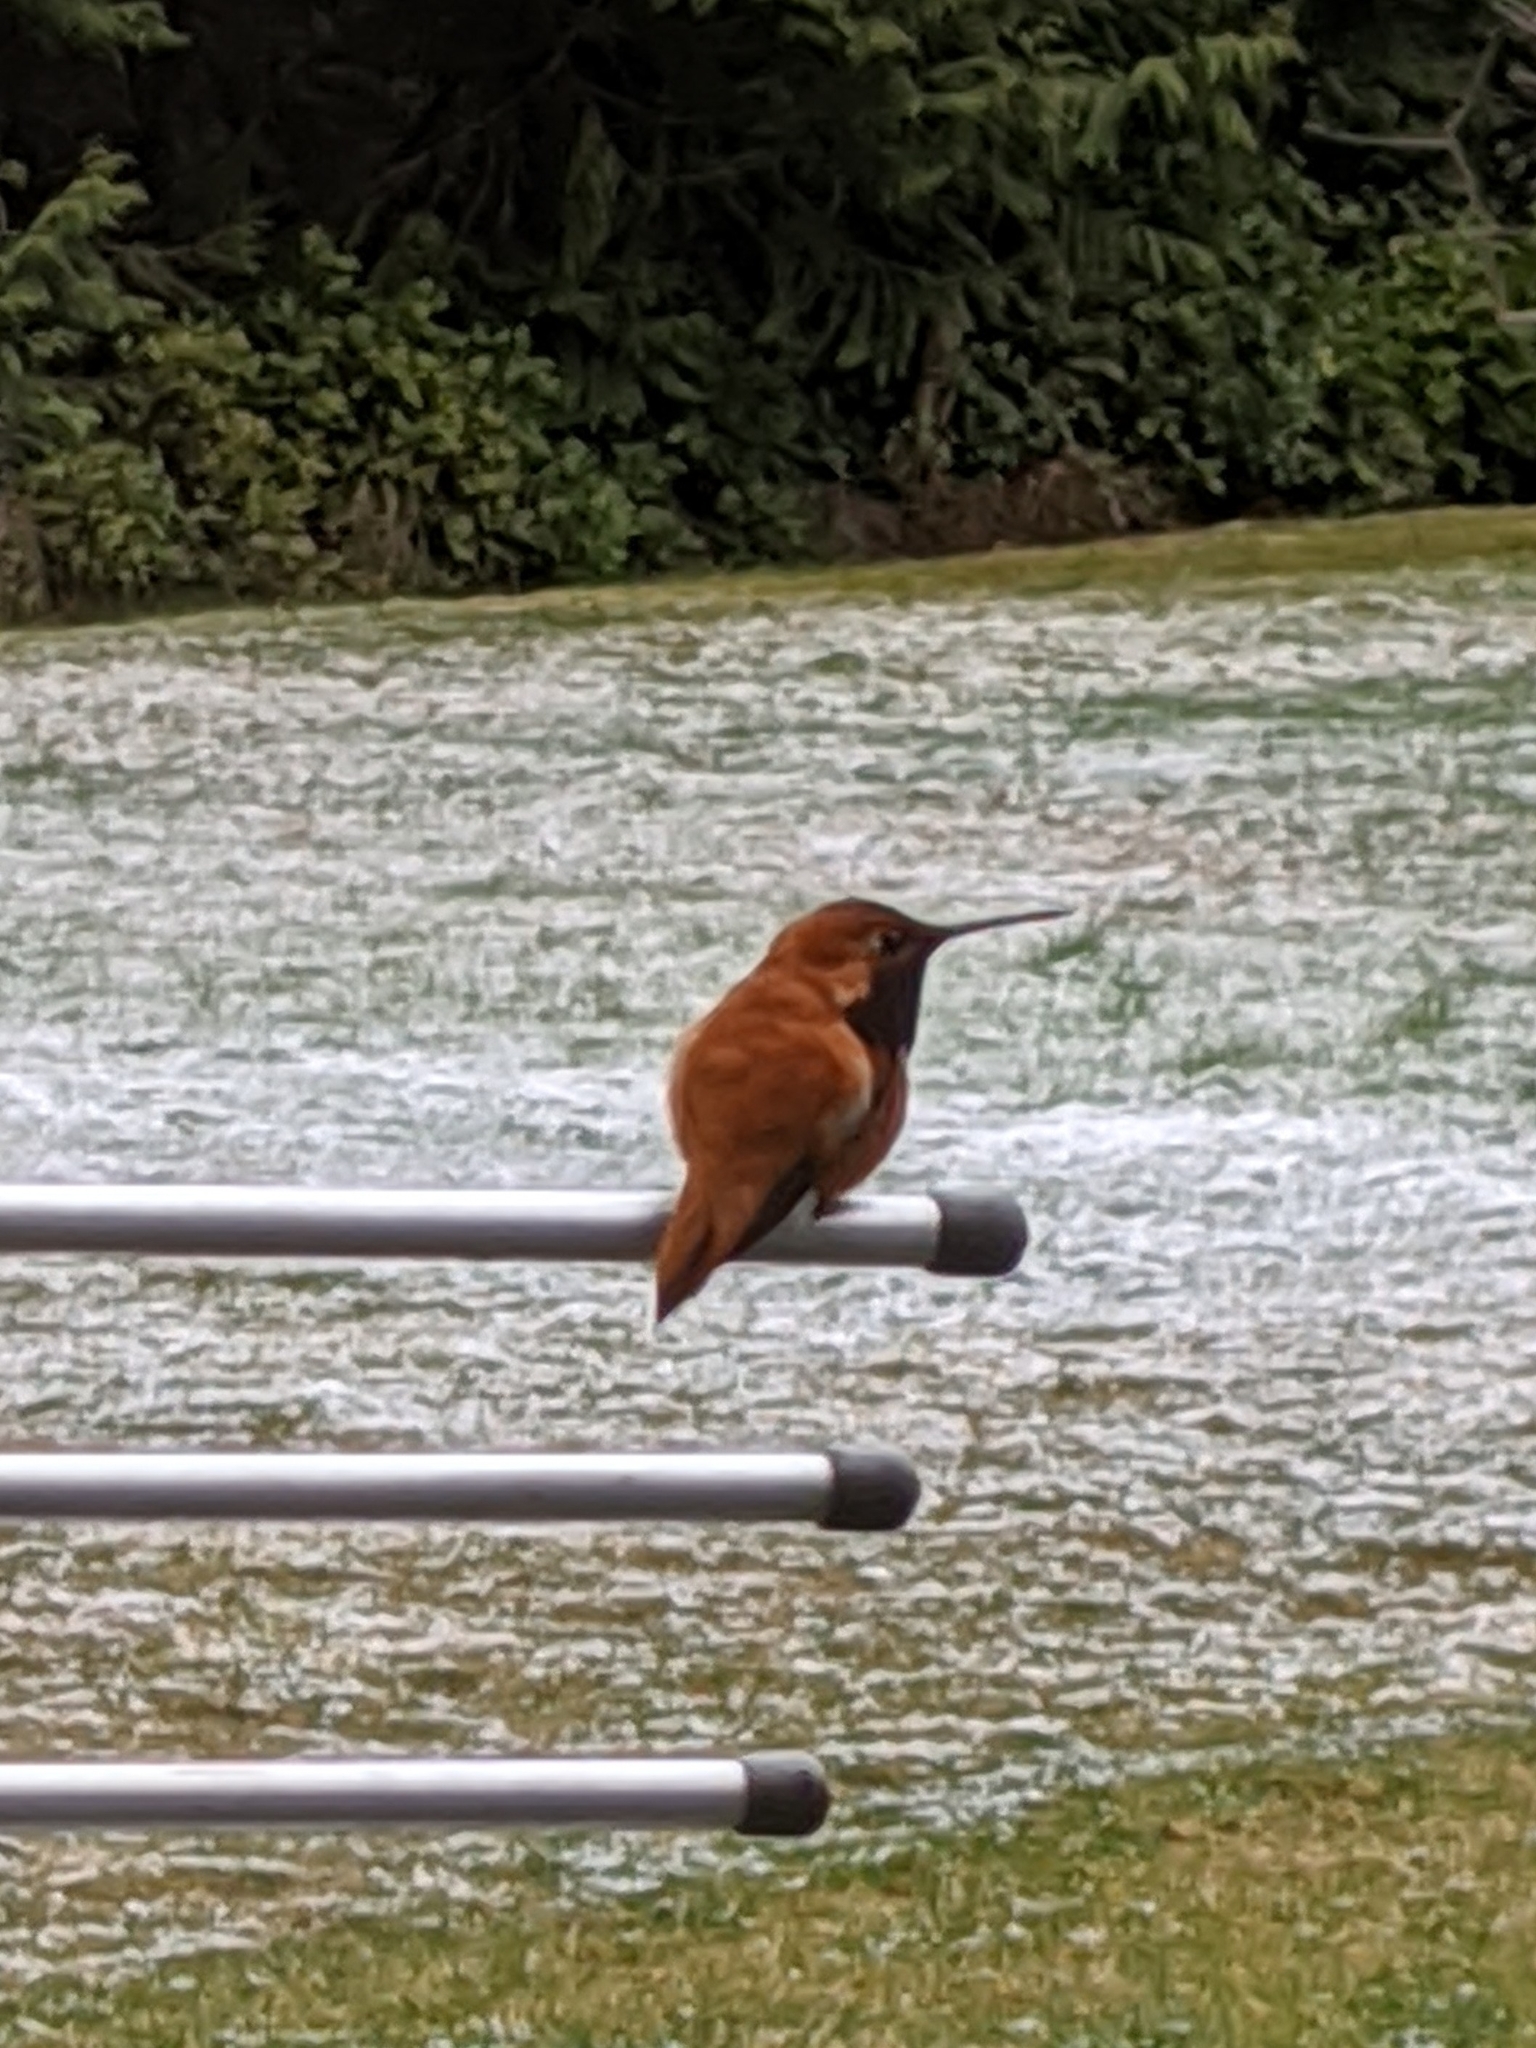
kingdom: Animalia
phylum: Chordata
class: Aves
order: Apodiformes
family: Trochilidae
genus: Selasphorus
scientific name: Selasphorus rufus
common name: Rufous hummingbird
